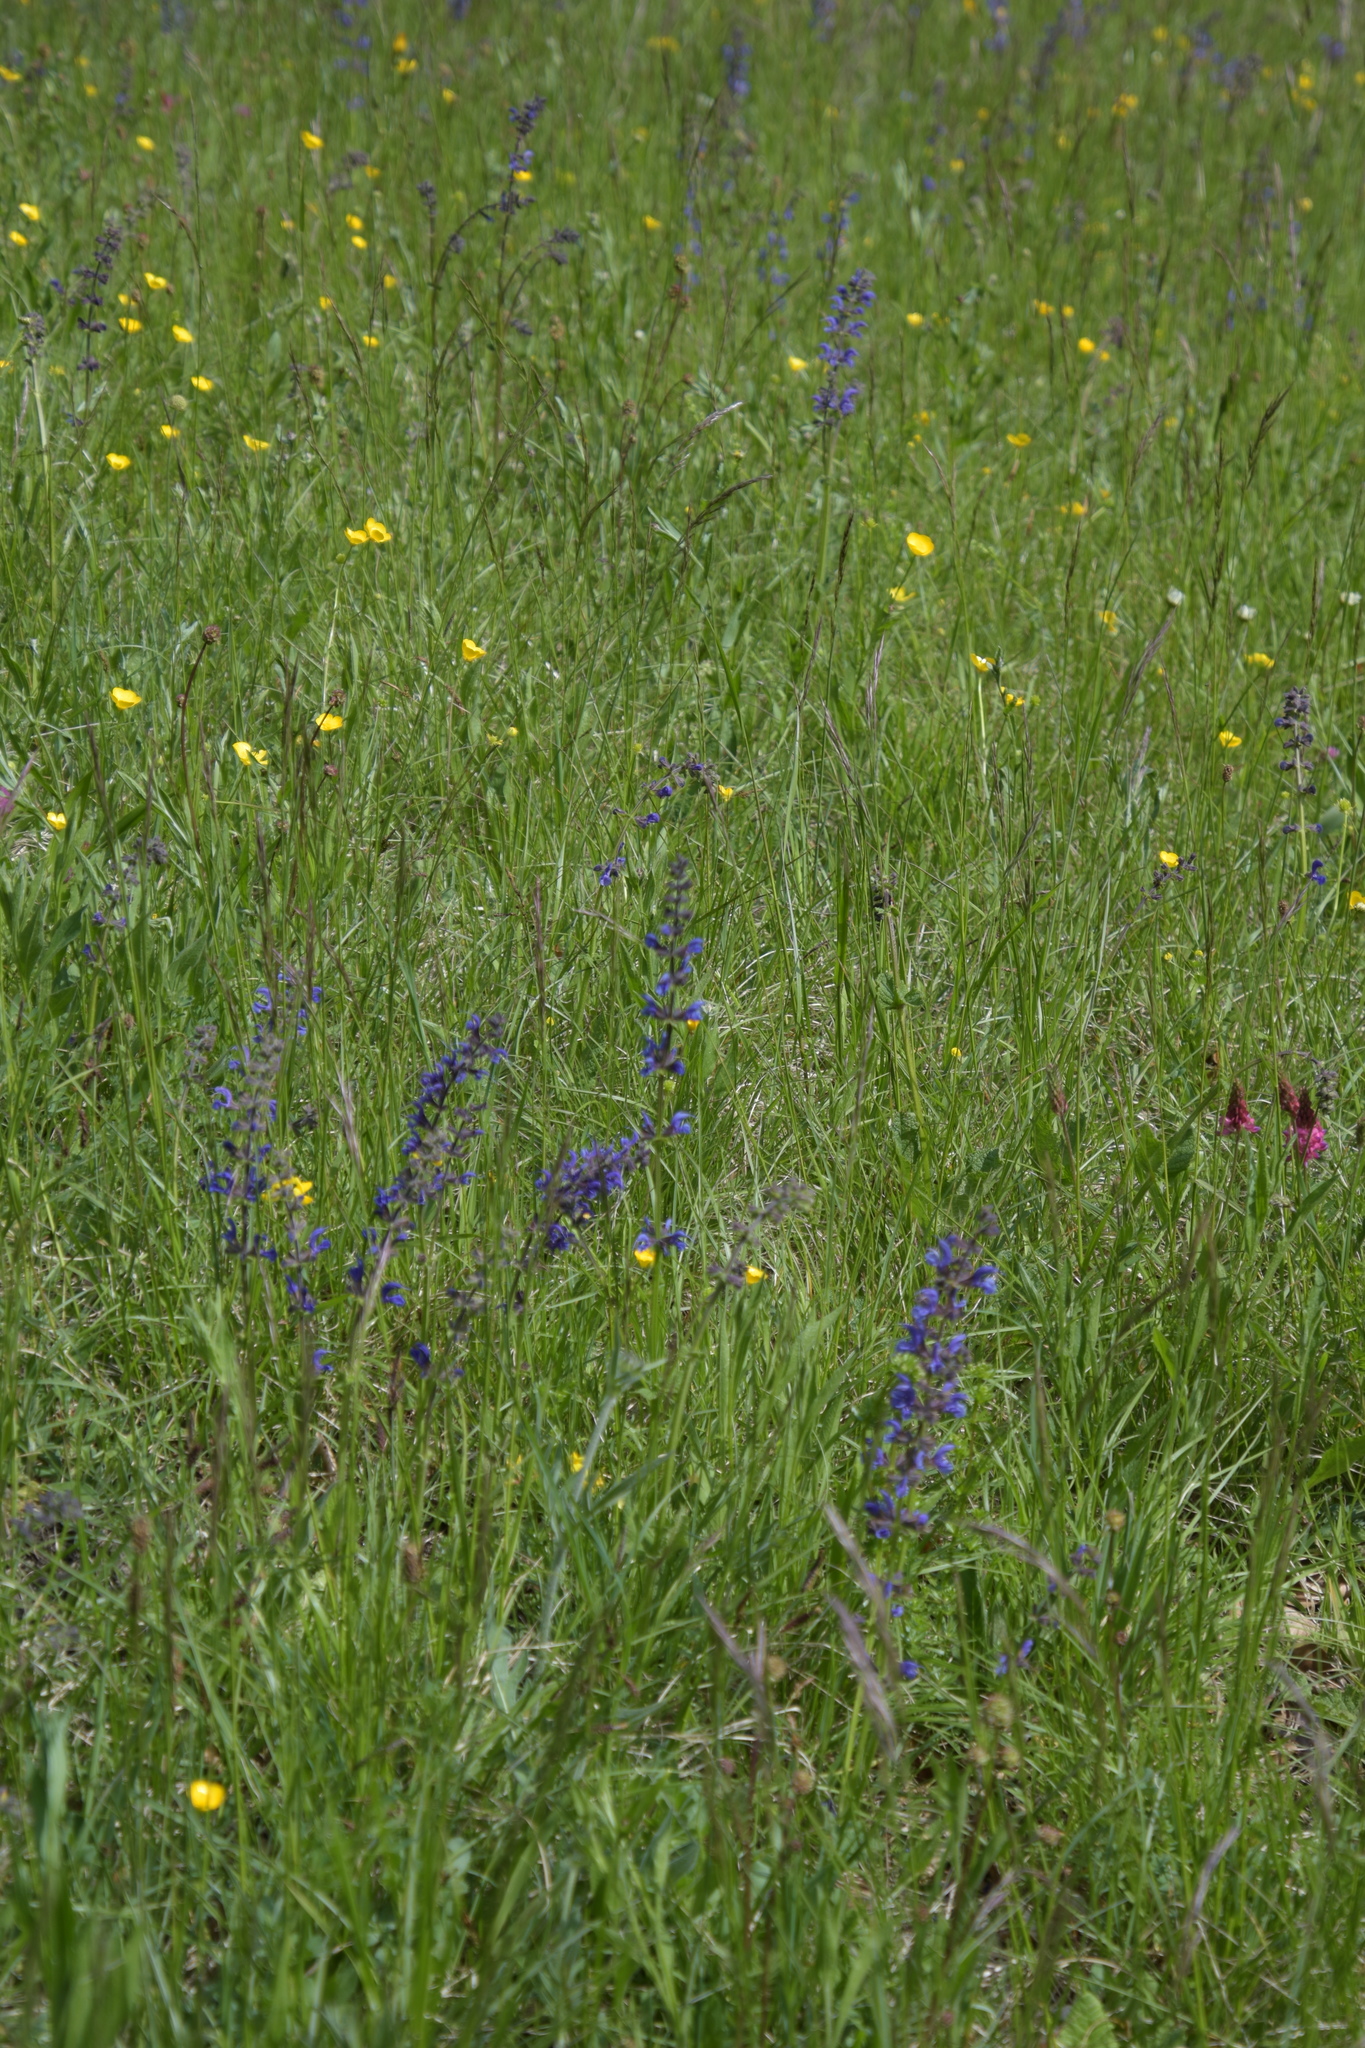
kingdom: Plantae
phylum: Tracheophyta
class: Magnoliopsida
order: Lamiales
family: Lamiaceae
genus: Salvia
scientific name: Salvia pratensis
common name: Meadow sage
